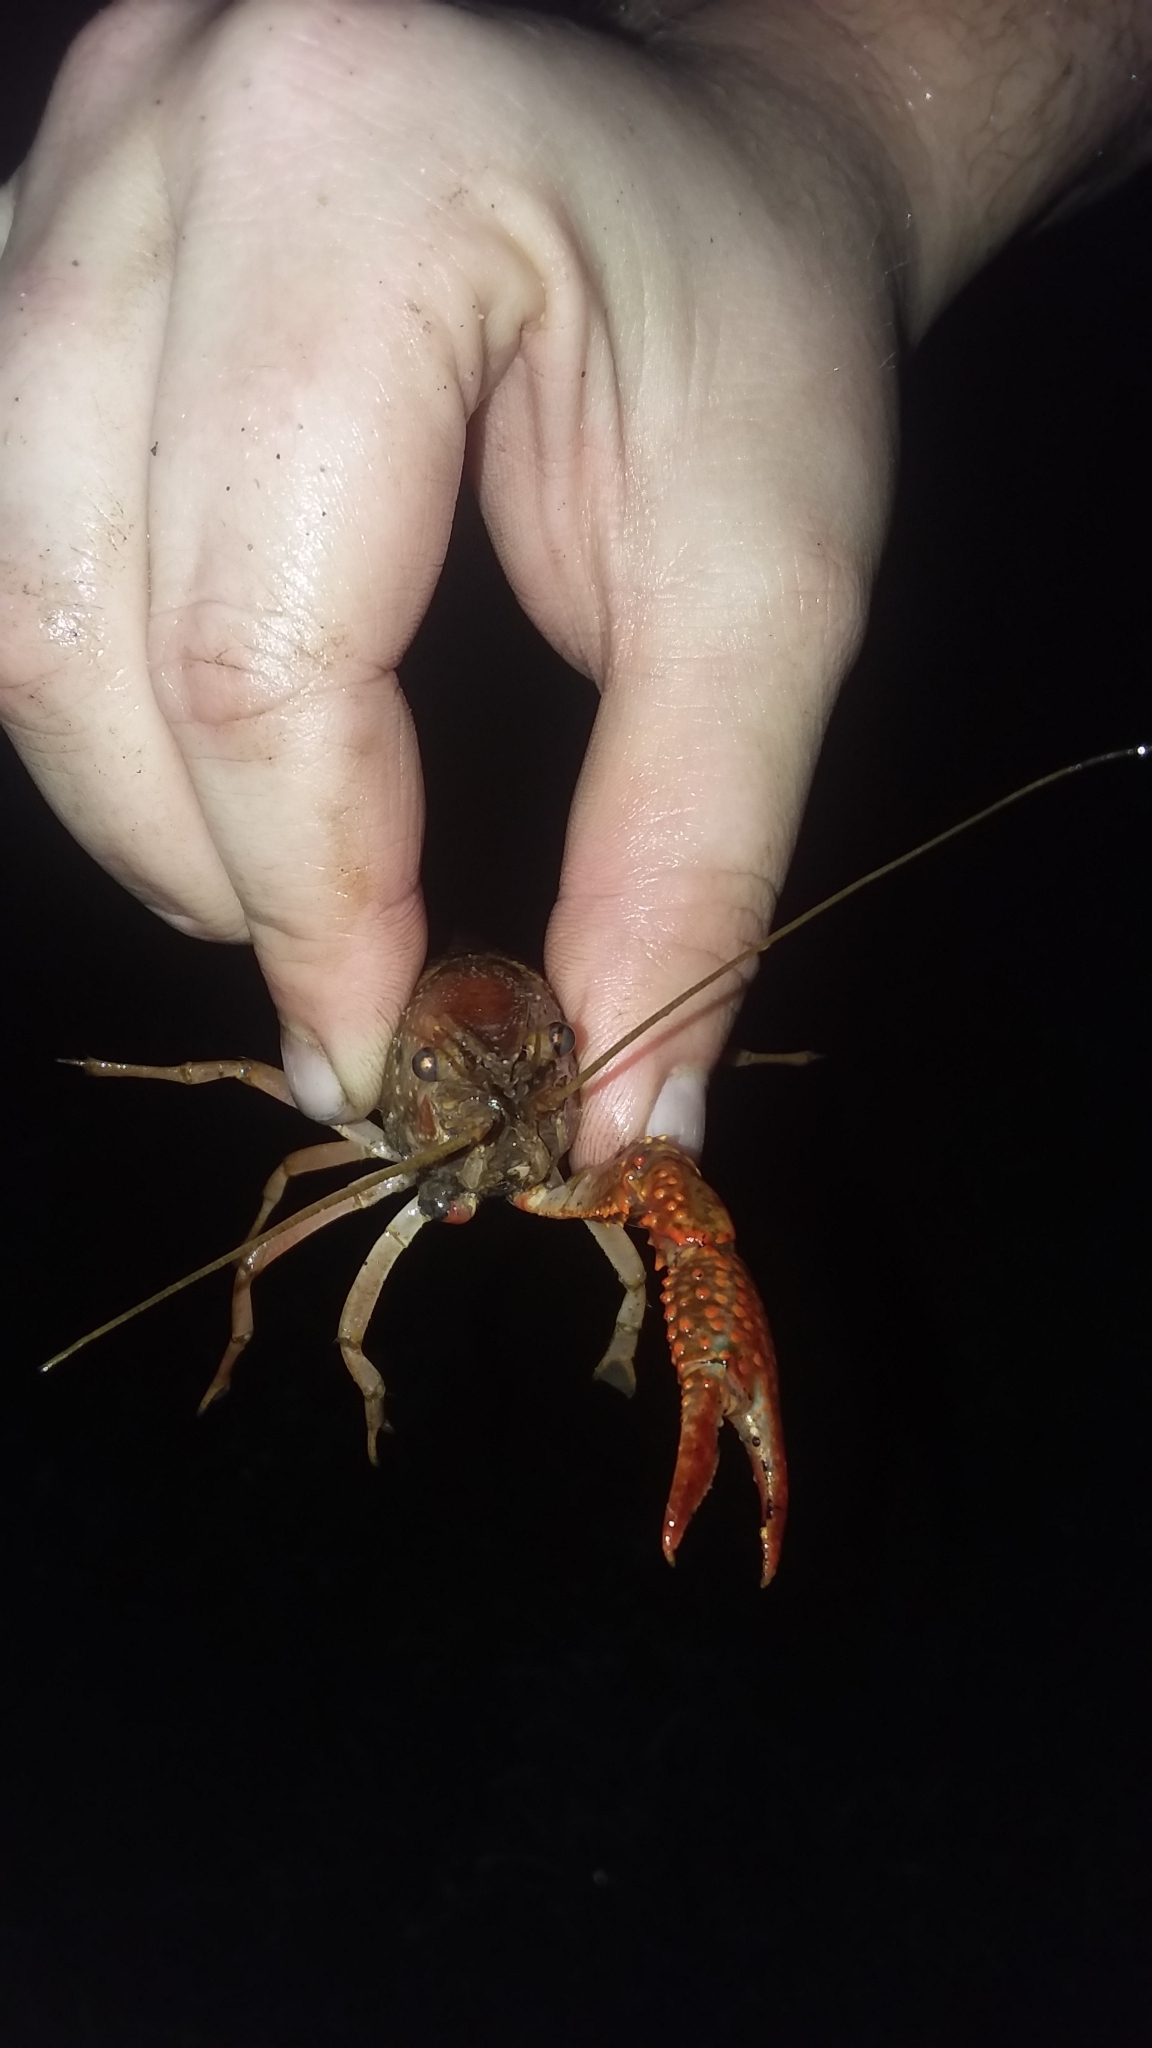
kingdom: Animalia
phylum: Arthropoda
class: Malacostraca
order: Decapoda
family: Cambaridae
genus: Procambarus
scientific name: Procambarus clarkii
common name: Red swamp crayfish
